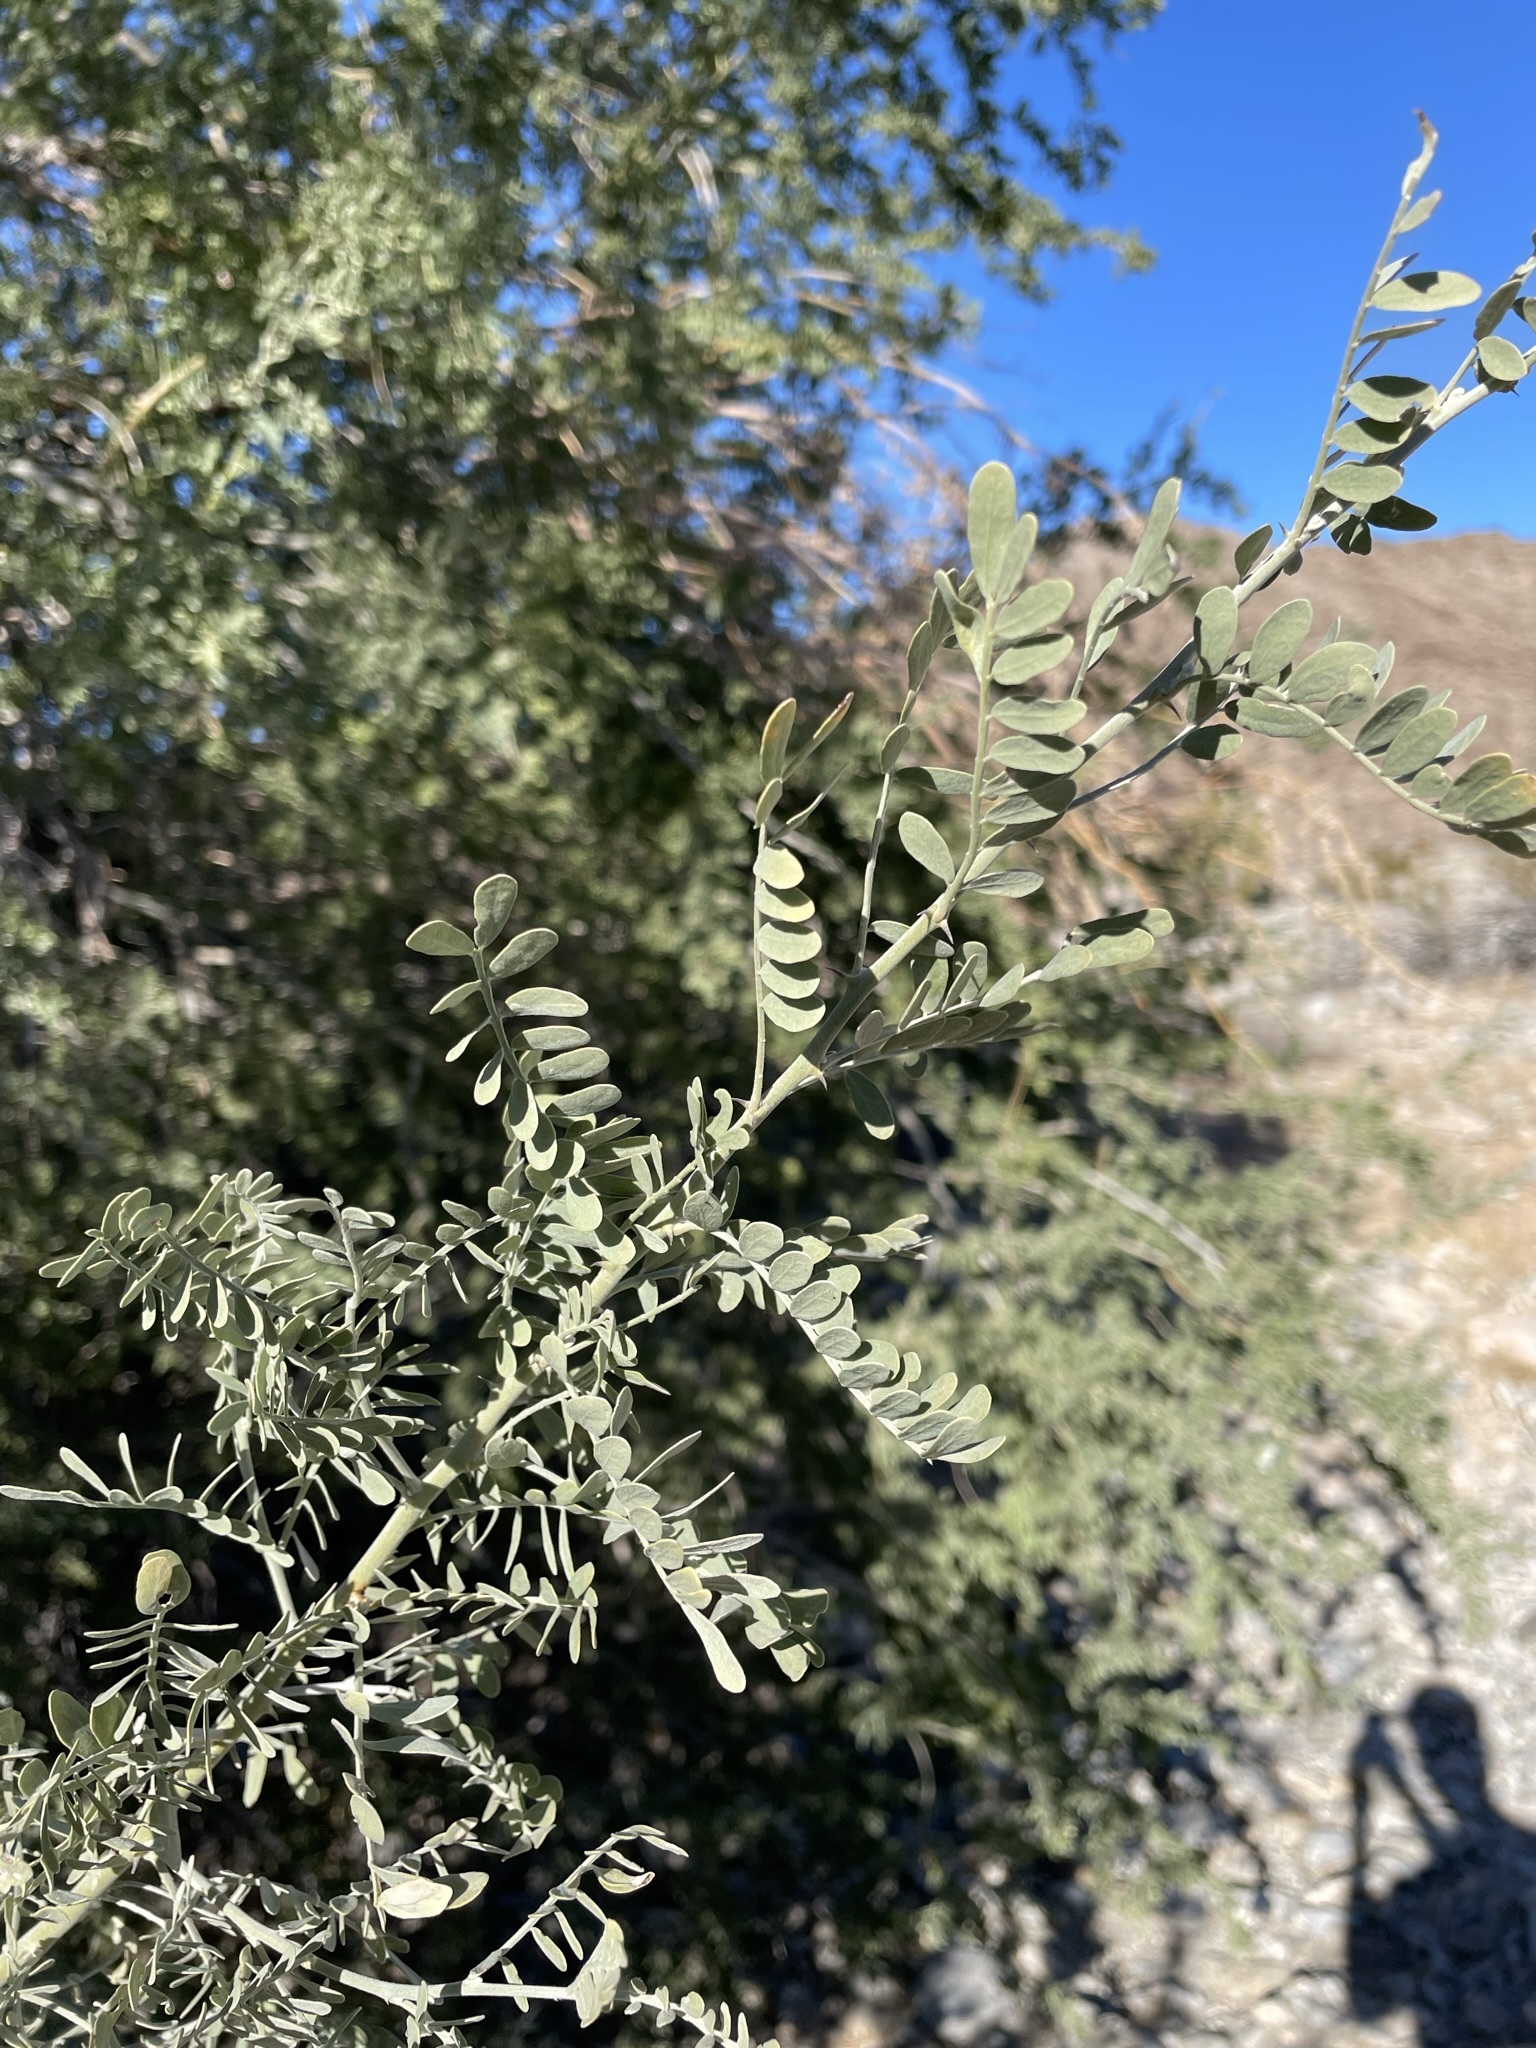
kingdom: Plantae
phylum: Tracheophyta
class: Magnoliopsida
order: Fabales
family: Fabaceae
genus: Olneya
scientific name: Olneya tesota
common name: Desert ironwood
